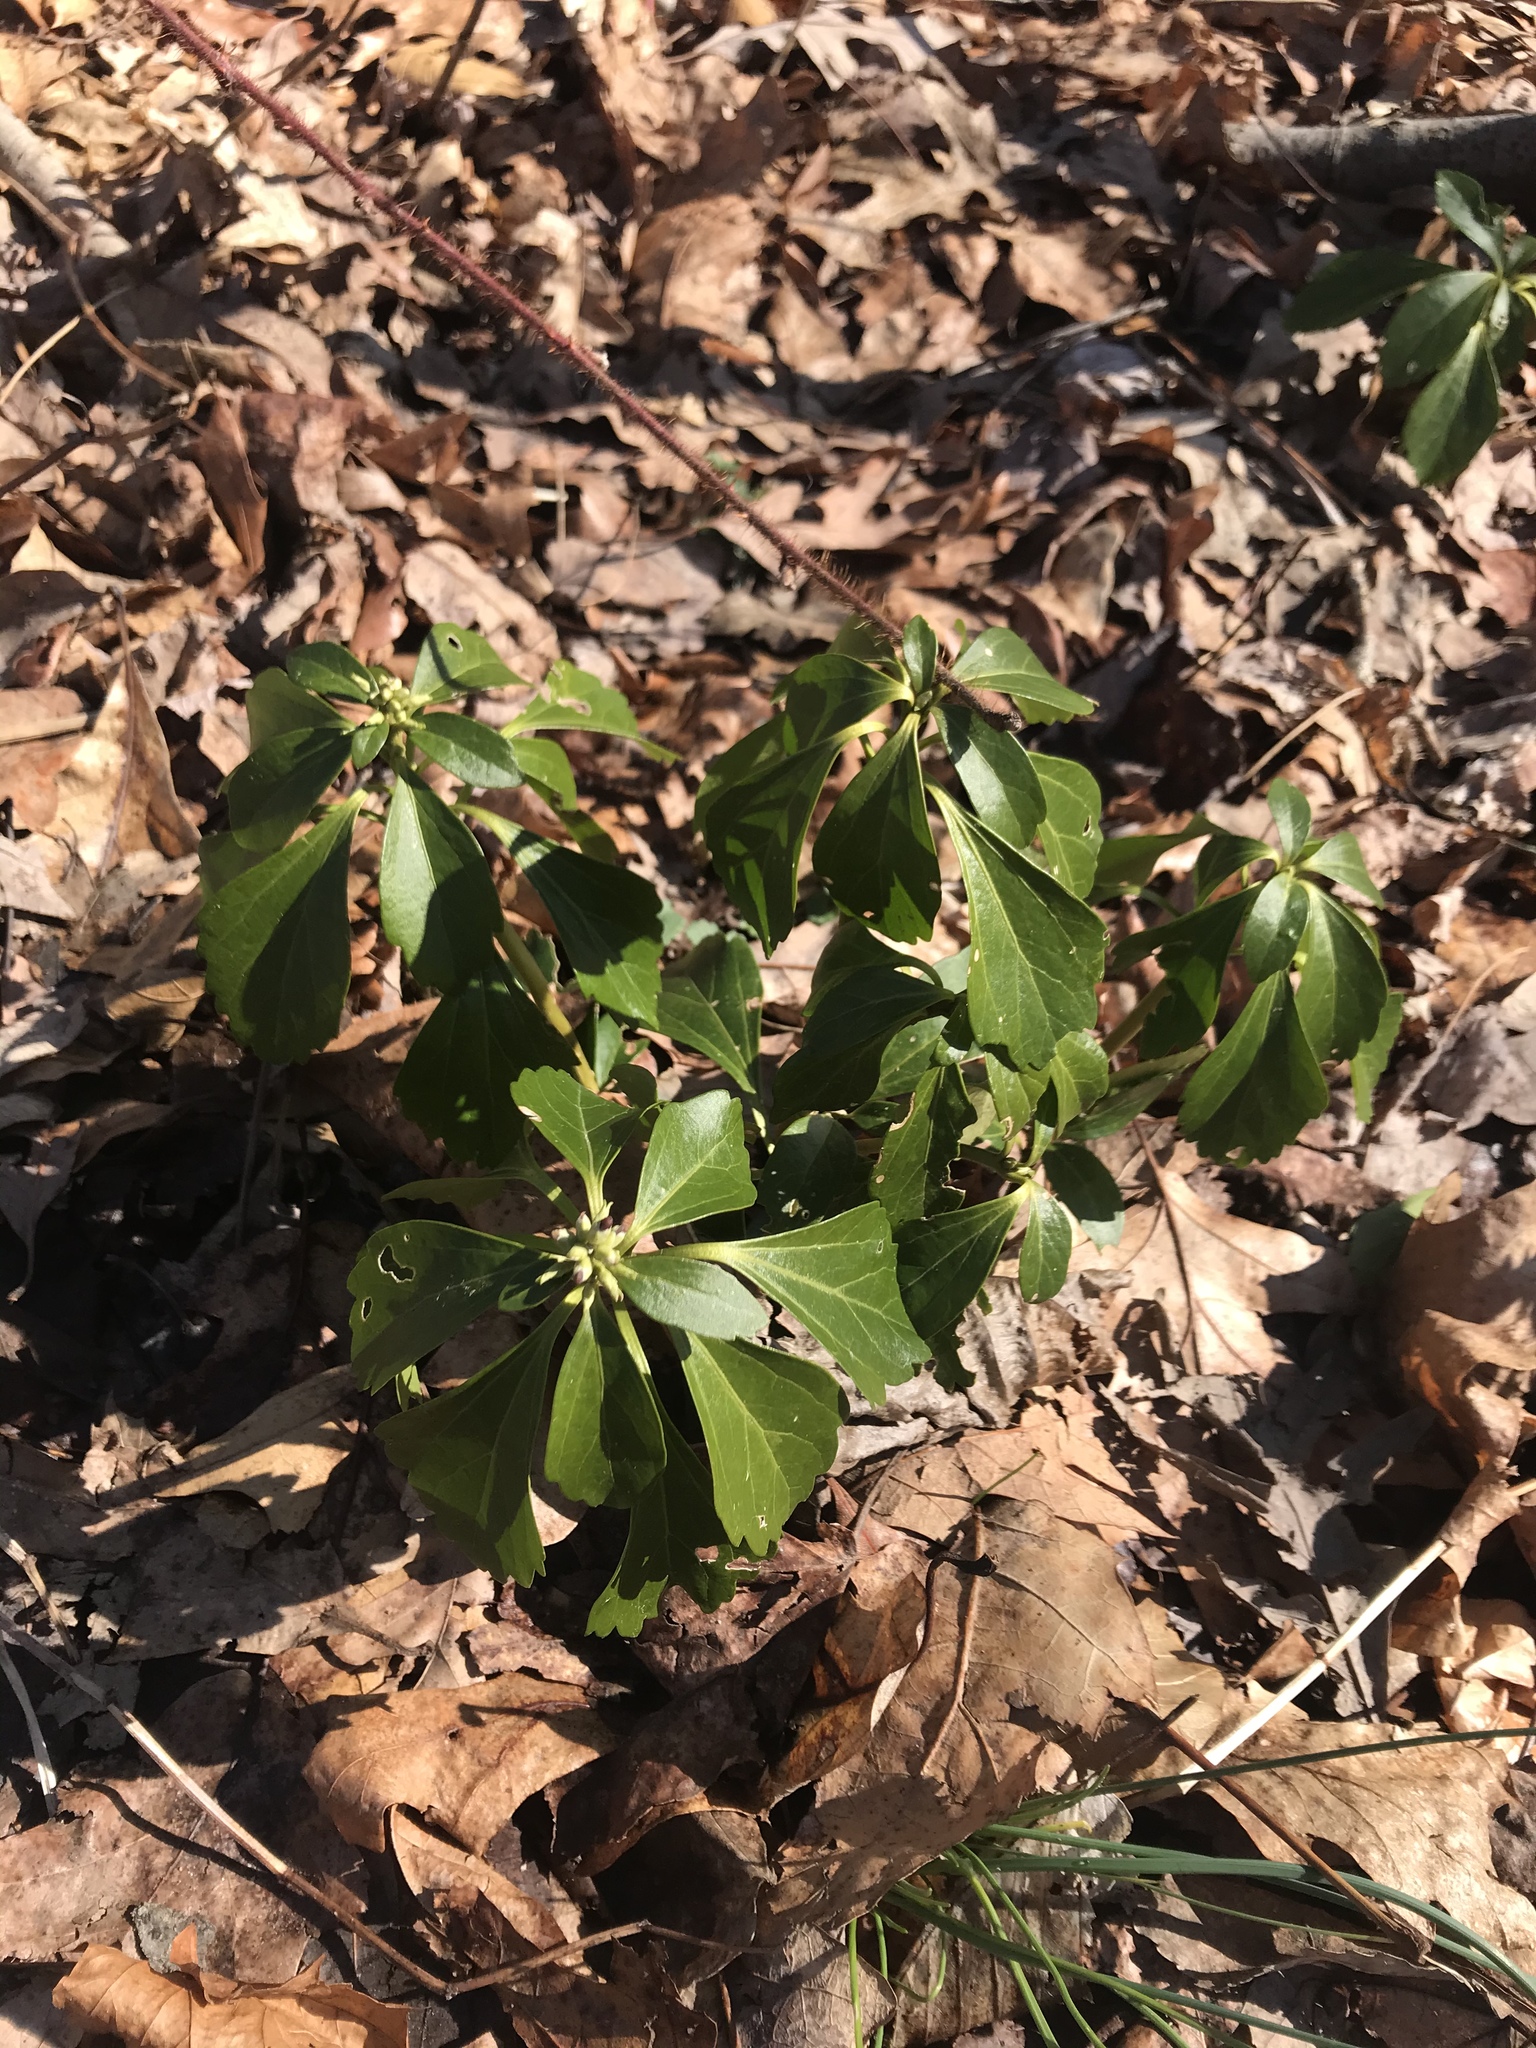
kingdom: Plantae
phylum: Tracheophyta
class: Magnoliopsida
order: Buxales
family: Buxaceae
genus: Pachysandra
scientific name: Pachysandra terminalis
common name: Japanese pachysandra
